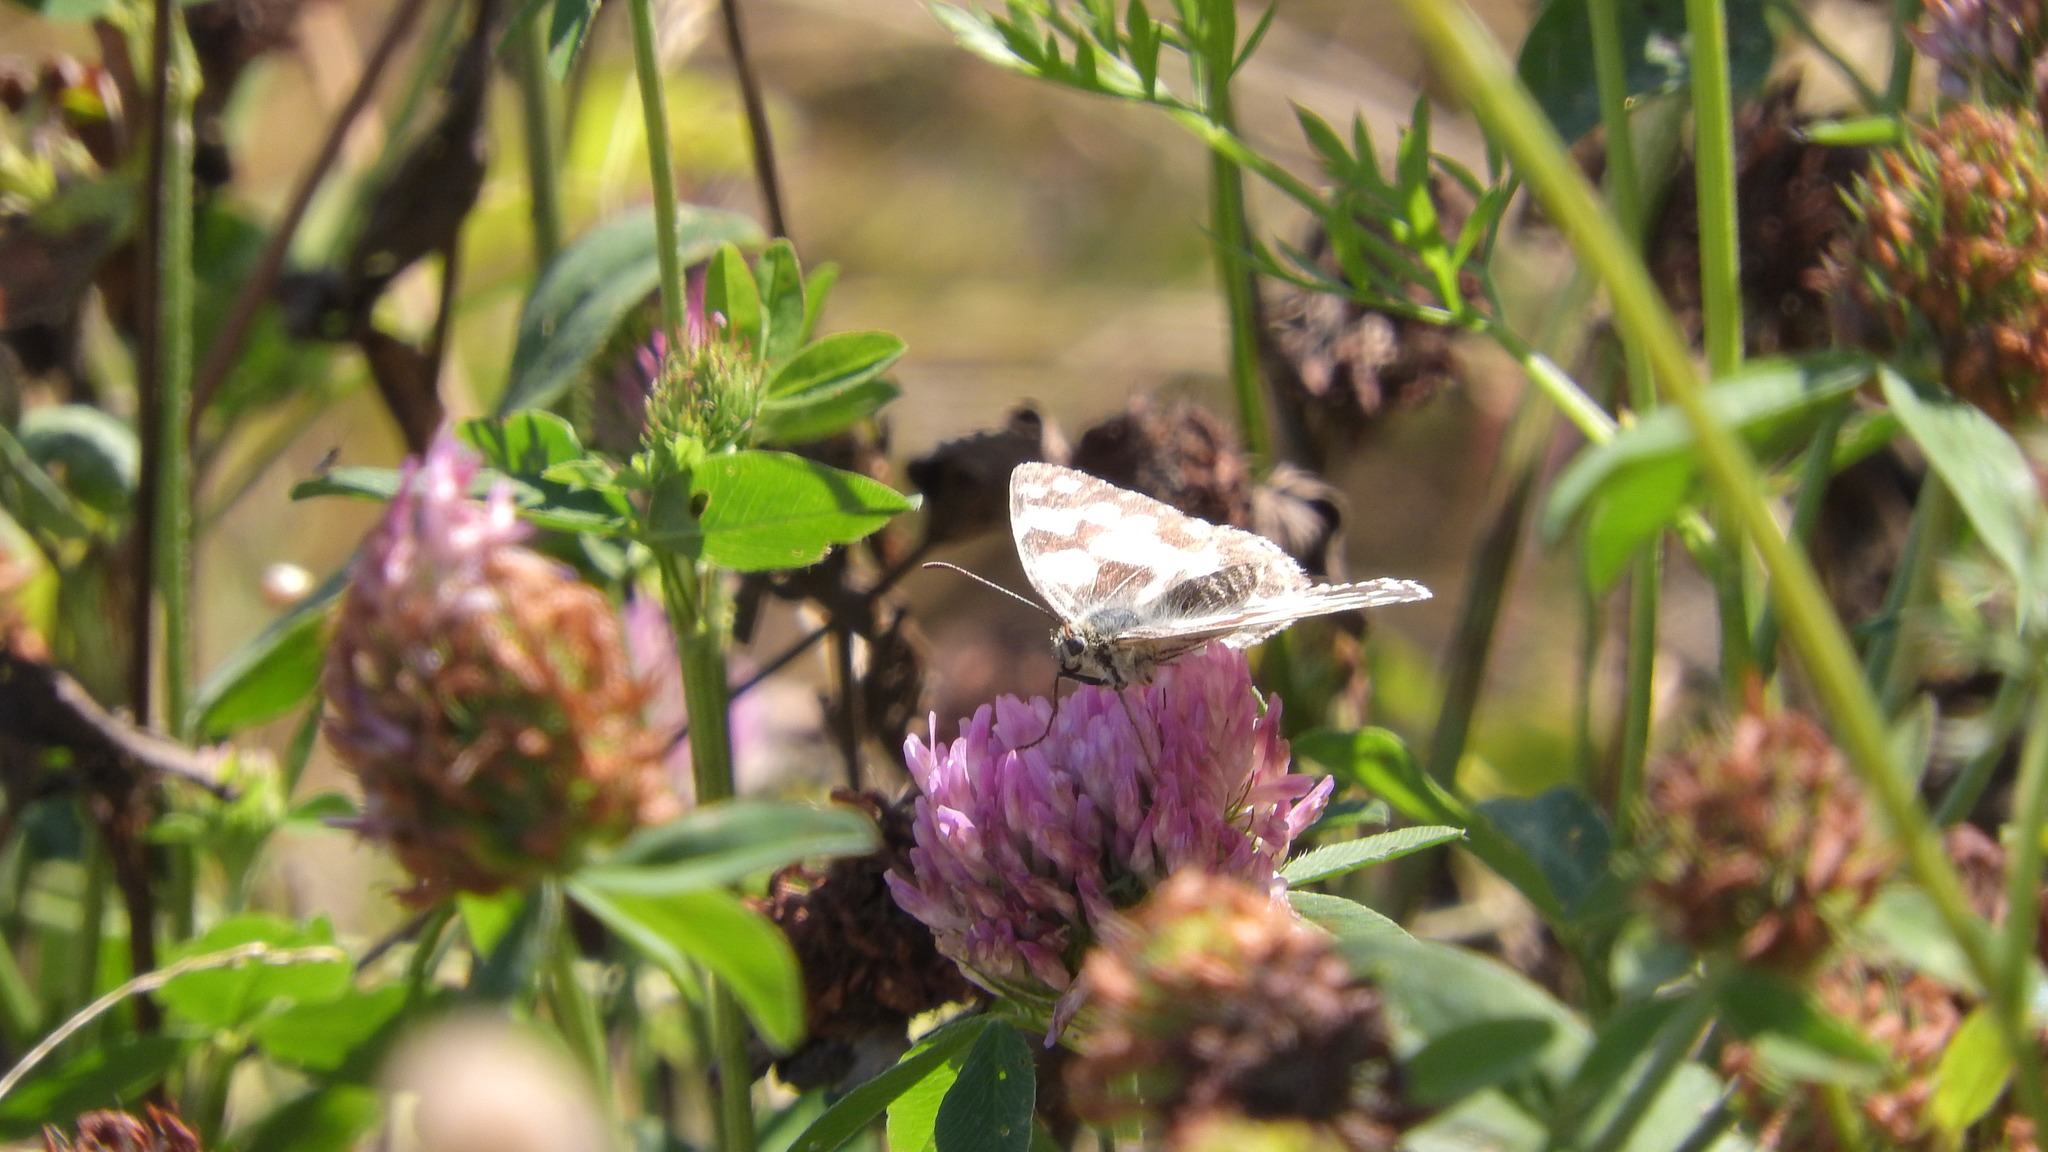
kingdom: Animalia
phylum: Arthropoda
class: Insecta
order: Lepidoptera
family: Nymphalidae
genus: Melanargia
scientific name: Melanargia galathea
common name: Marbled white
